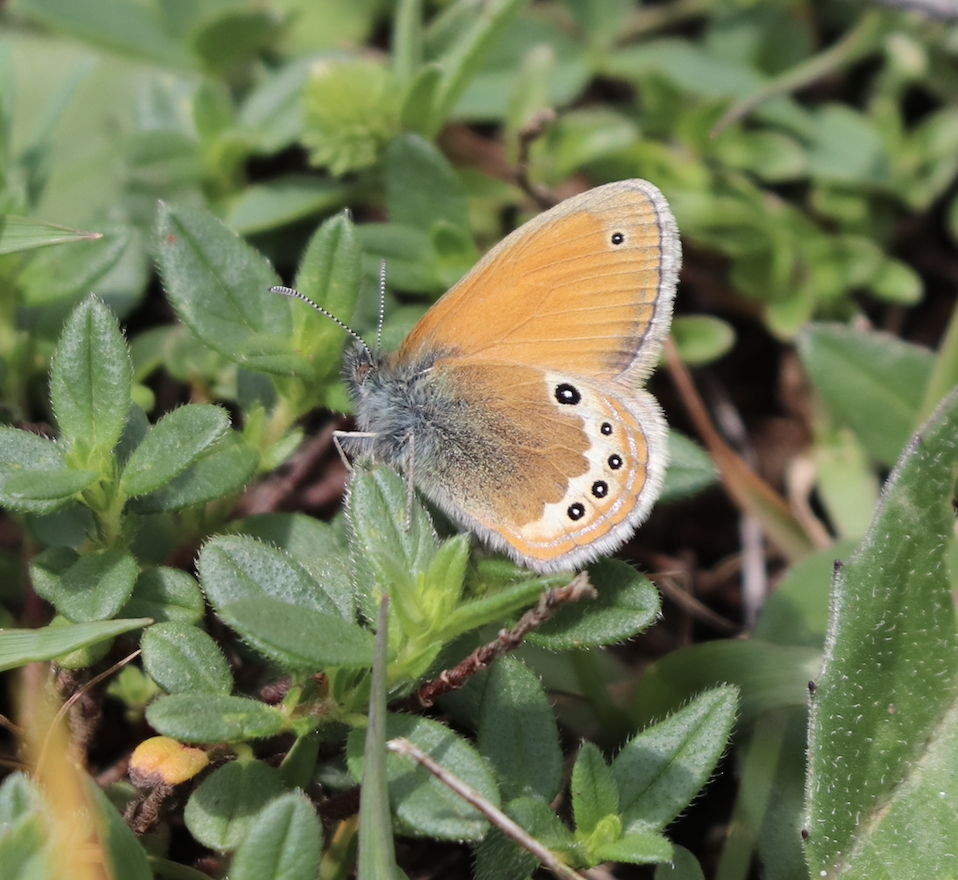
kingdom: Animalia
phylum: Arthropoda
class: Insecta
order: Lepidoptera
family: Nymphalidae
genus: Coenonympha
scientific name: Coenonympha
